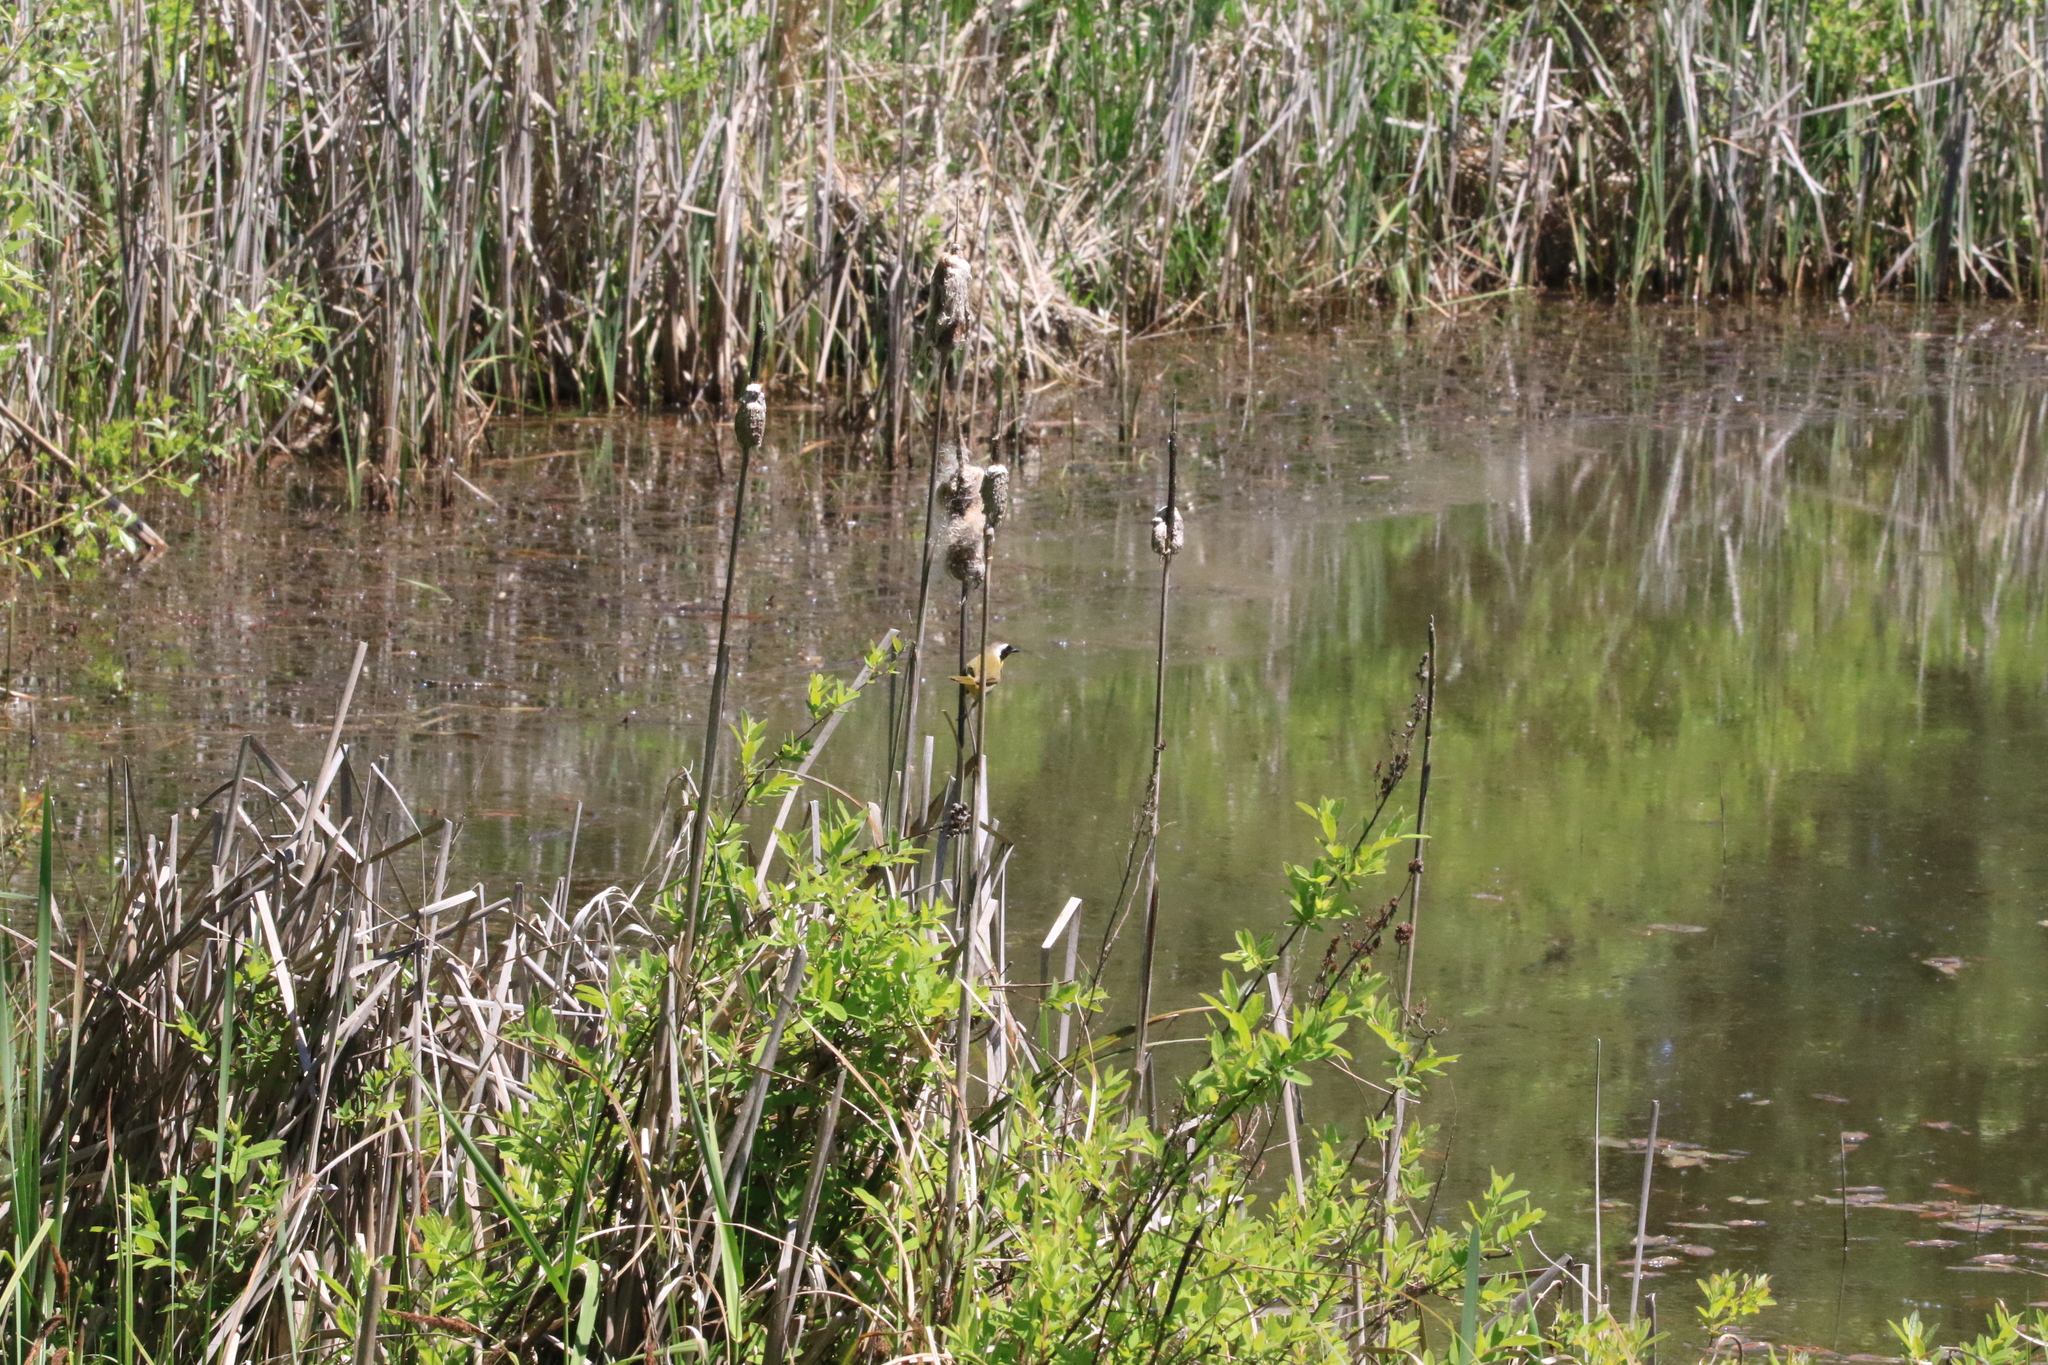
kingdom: Animalia
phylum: Chordata
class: Aves
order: Passeriformes
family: Parulidae
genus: Geothlypis
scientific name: Geothlypis trichas
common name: Common yellowthroat
